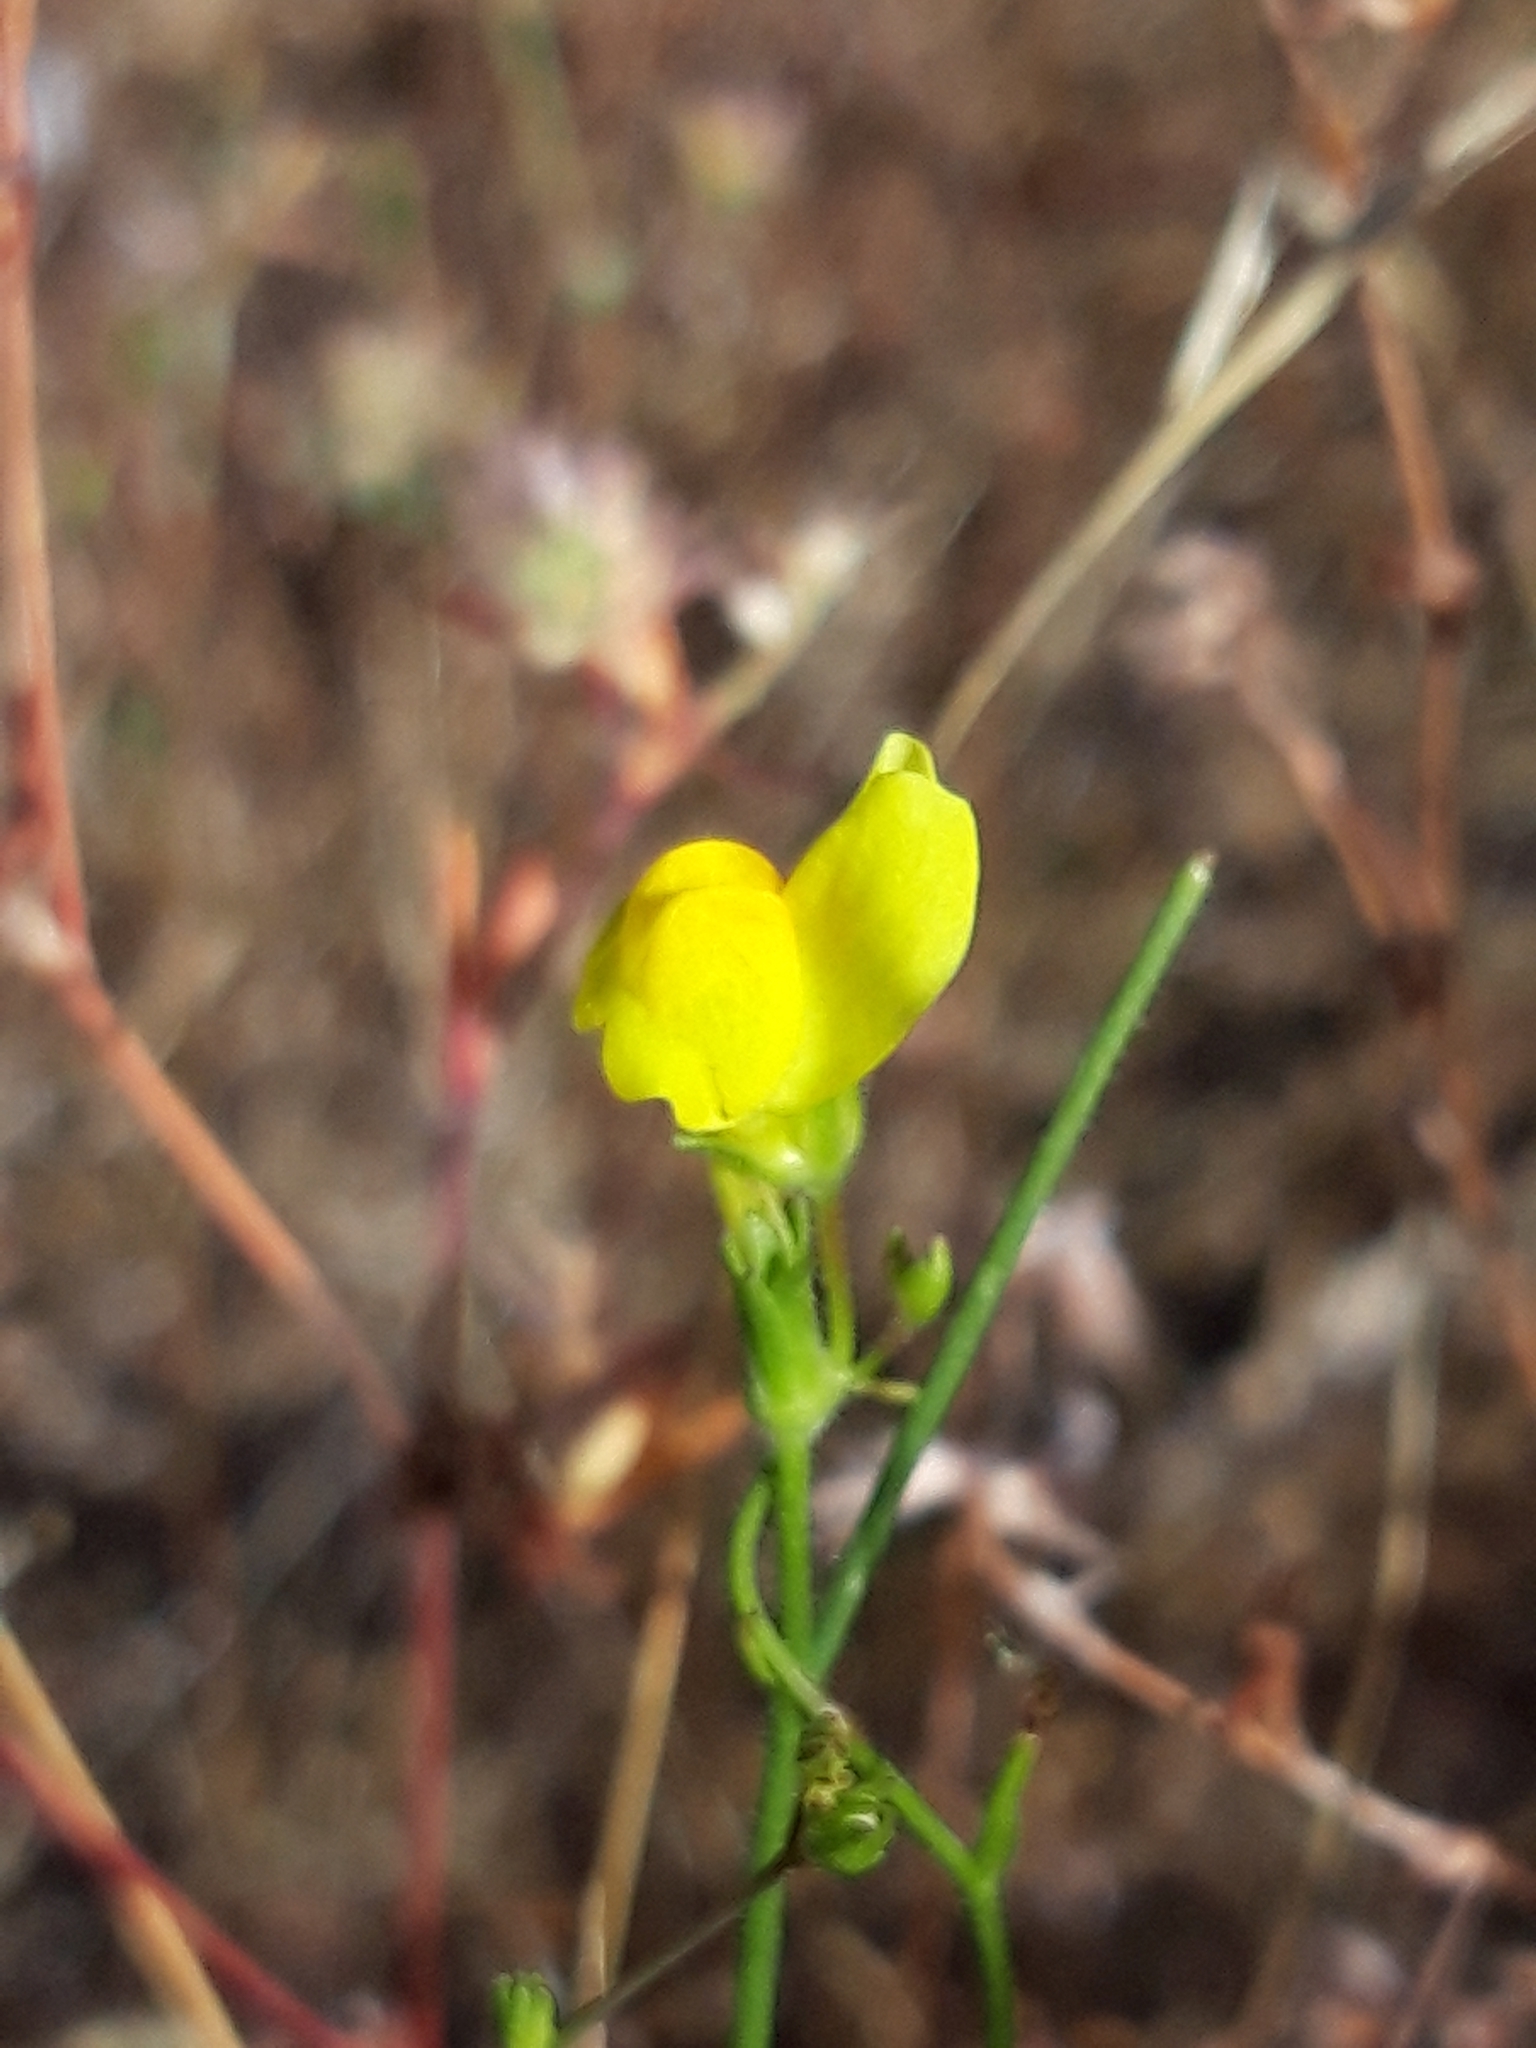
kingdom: Plantae
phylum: Tracheophyta
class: Magnoliopsida
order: Lamiales
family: Plantaginaceae
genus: Linaria
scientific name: Linaria spartea
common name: Ballast toadflax
